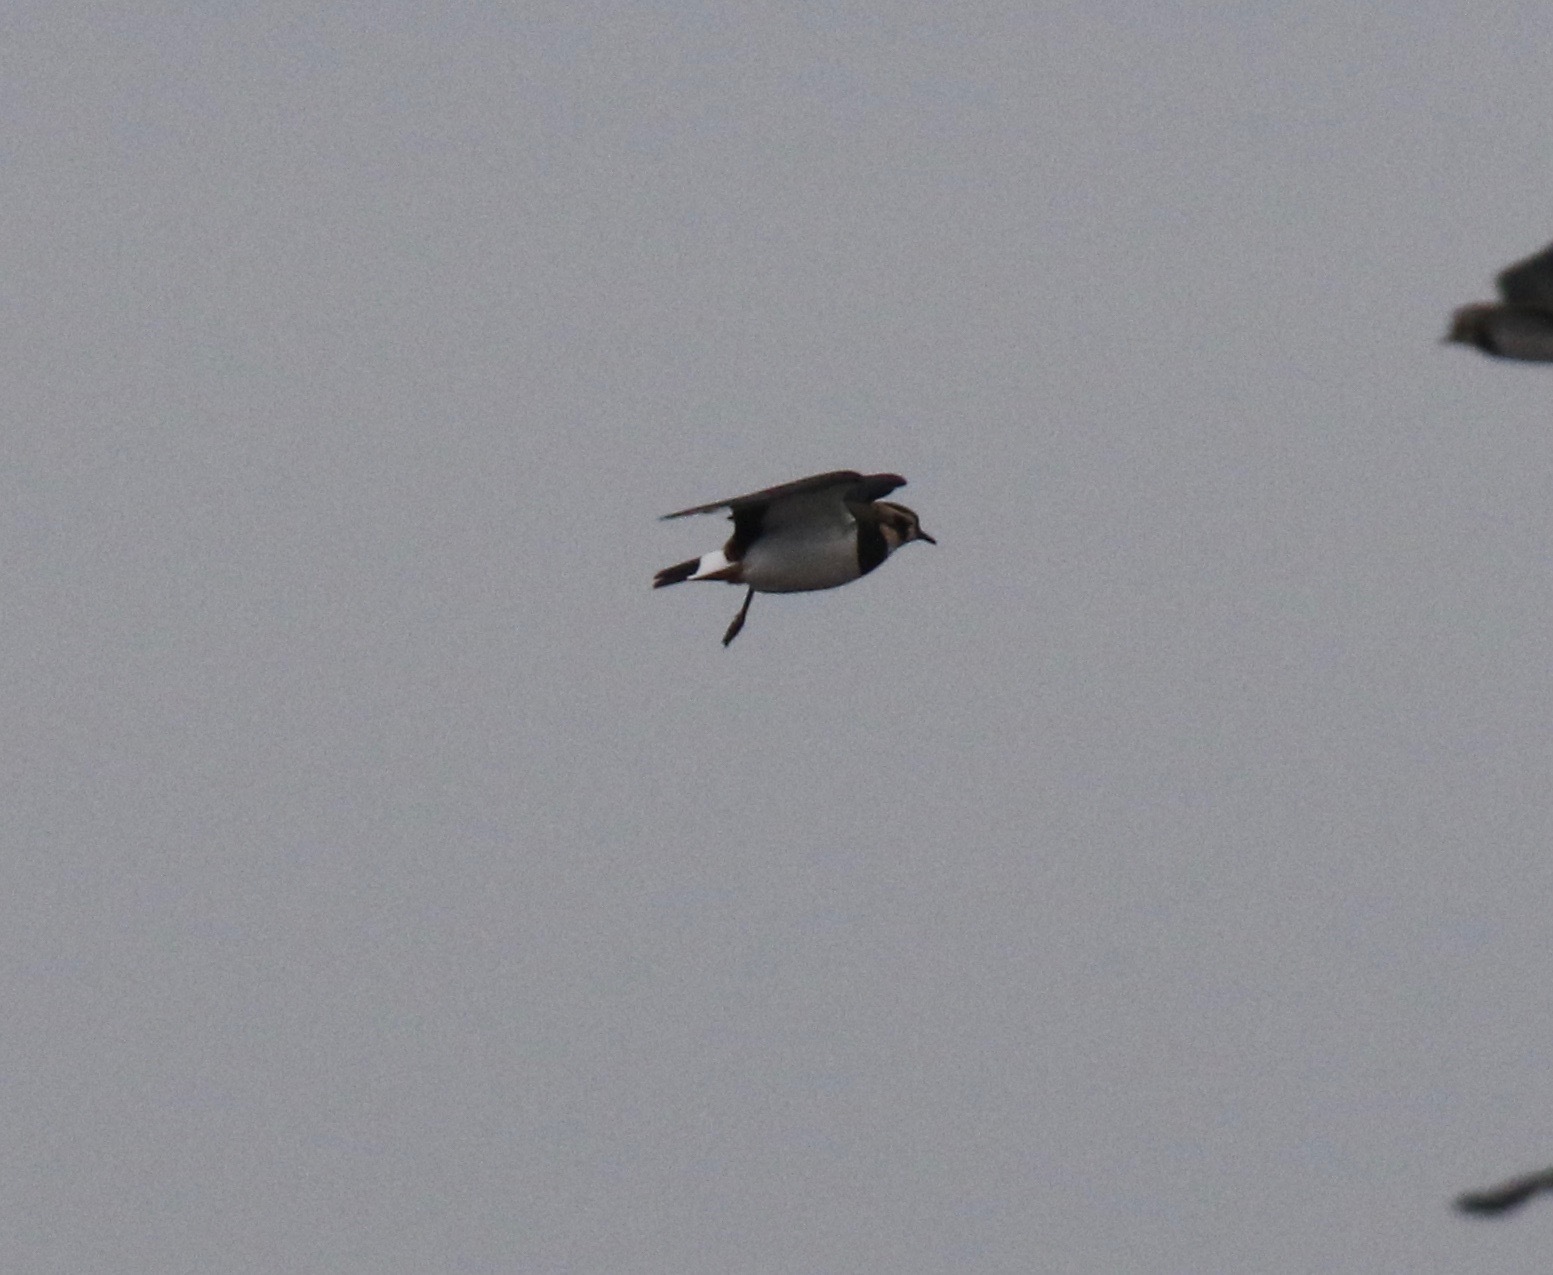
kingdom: Animalia
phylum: Chordata
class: Aves
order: Charadriiformes
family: Charadriidae
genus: Vanellus
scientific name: Vanellus vanellus
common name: Northern lapwing
